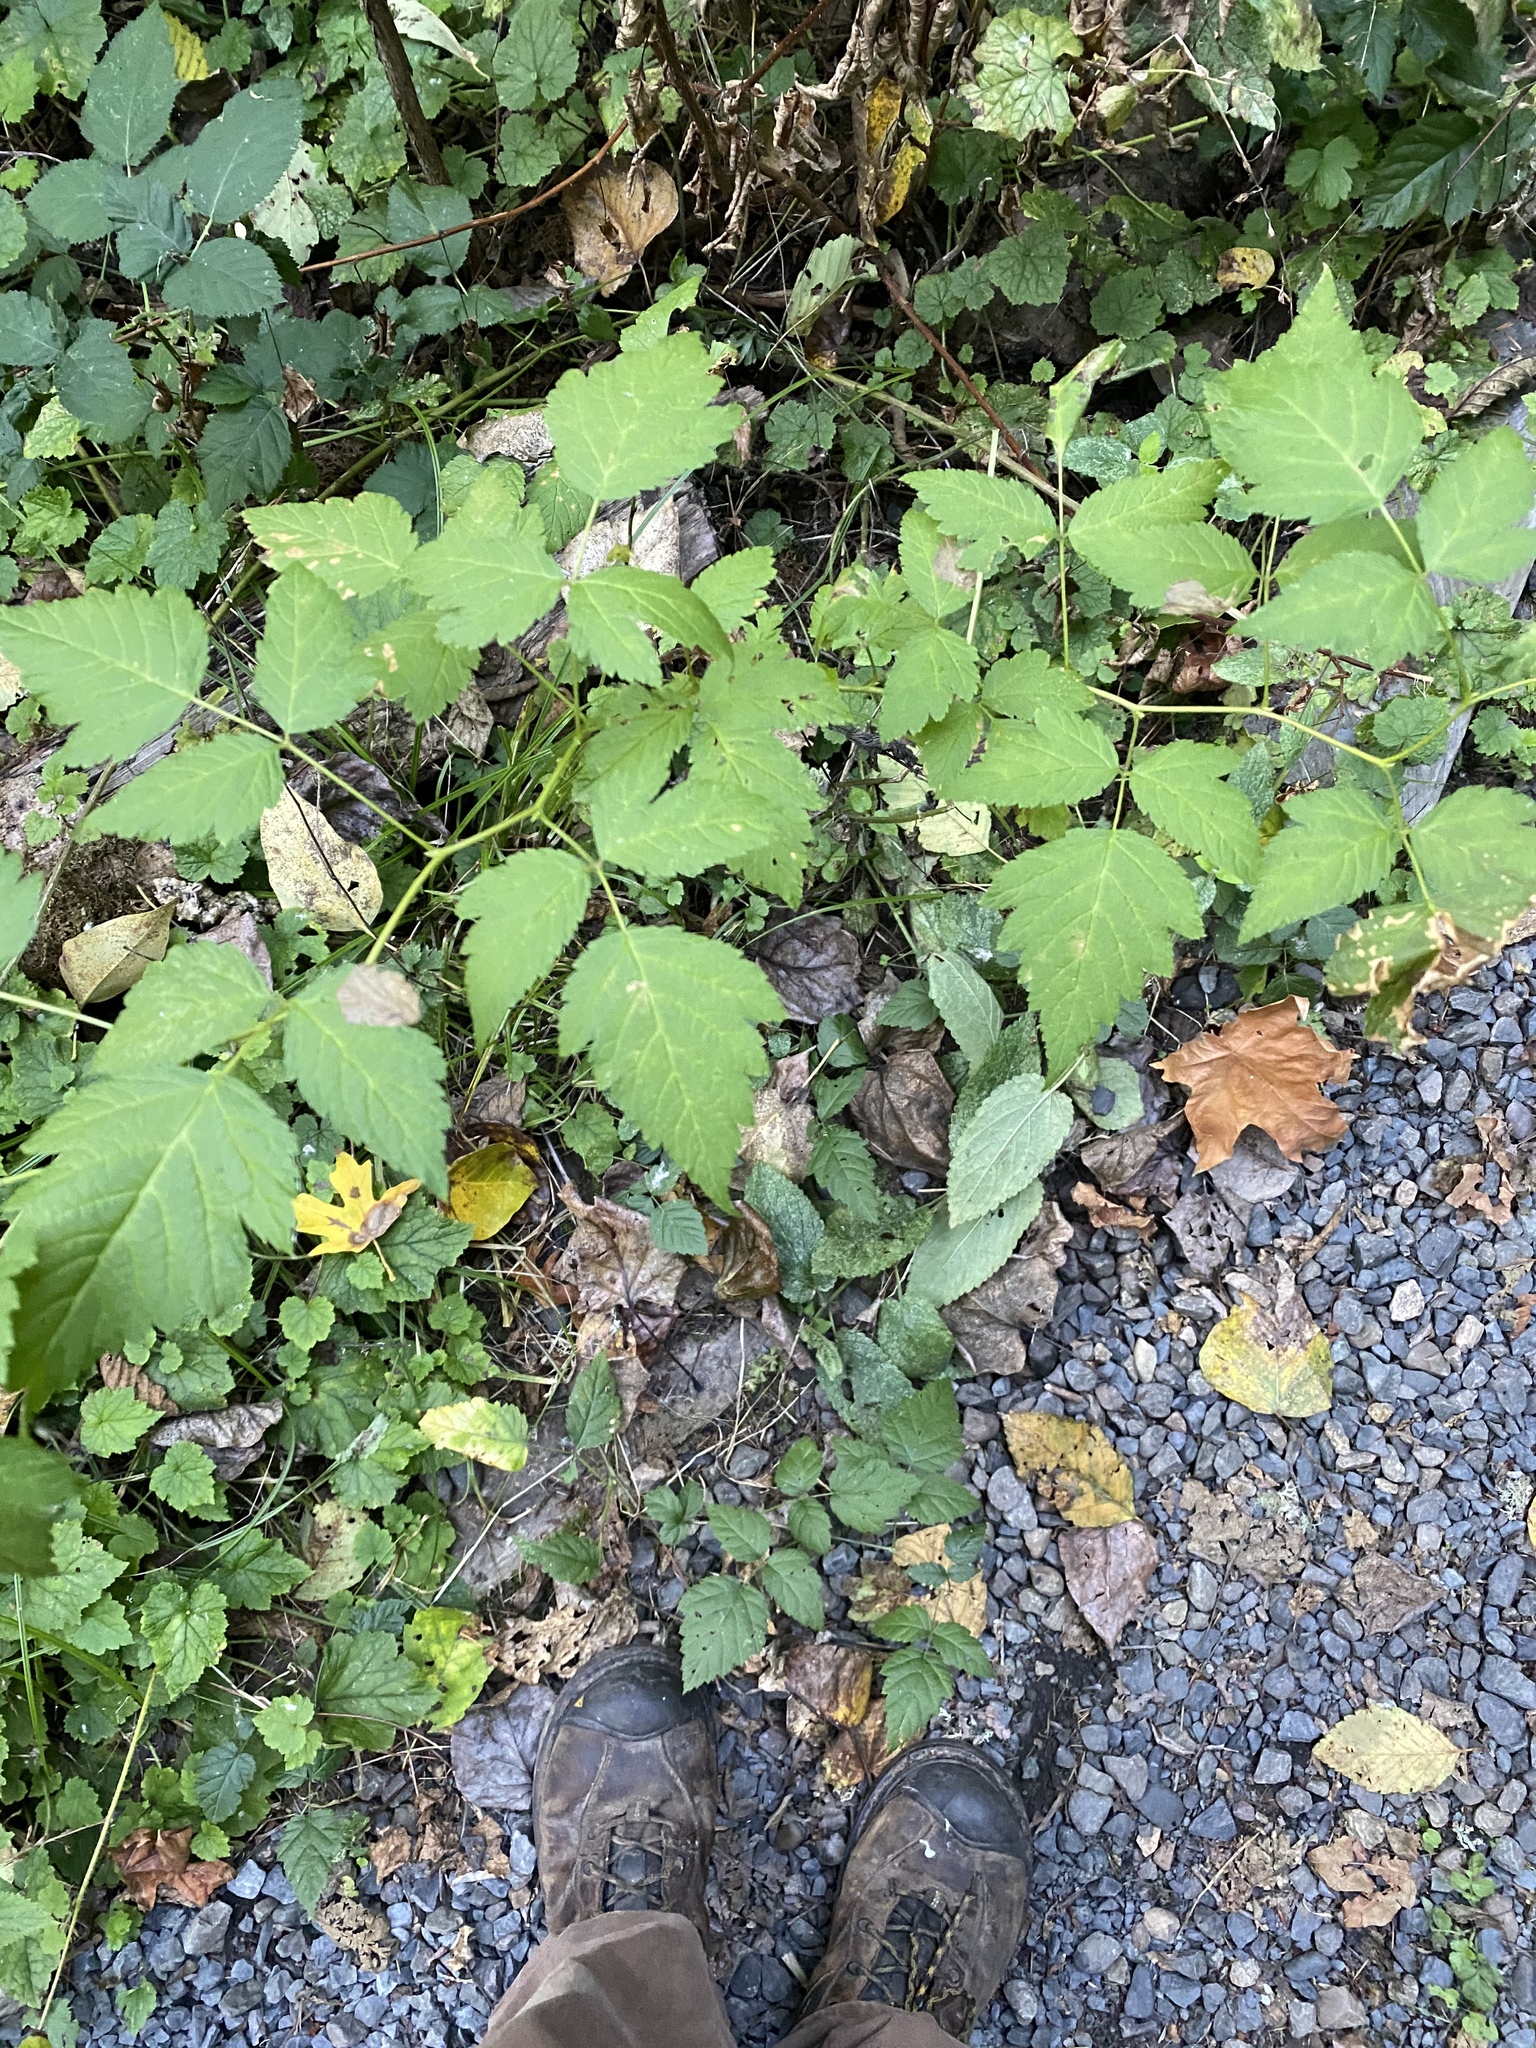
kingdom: Plantae
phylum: Tracheophyta
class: Magnoliopsida
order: Rosales
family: Rosaceae
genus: Rubus
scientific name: Rubus spectabilis
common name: Salmonberry
